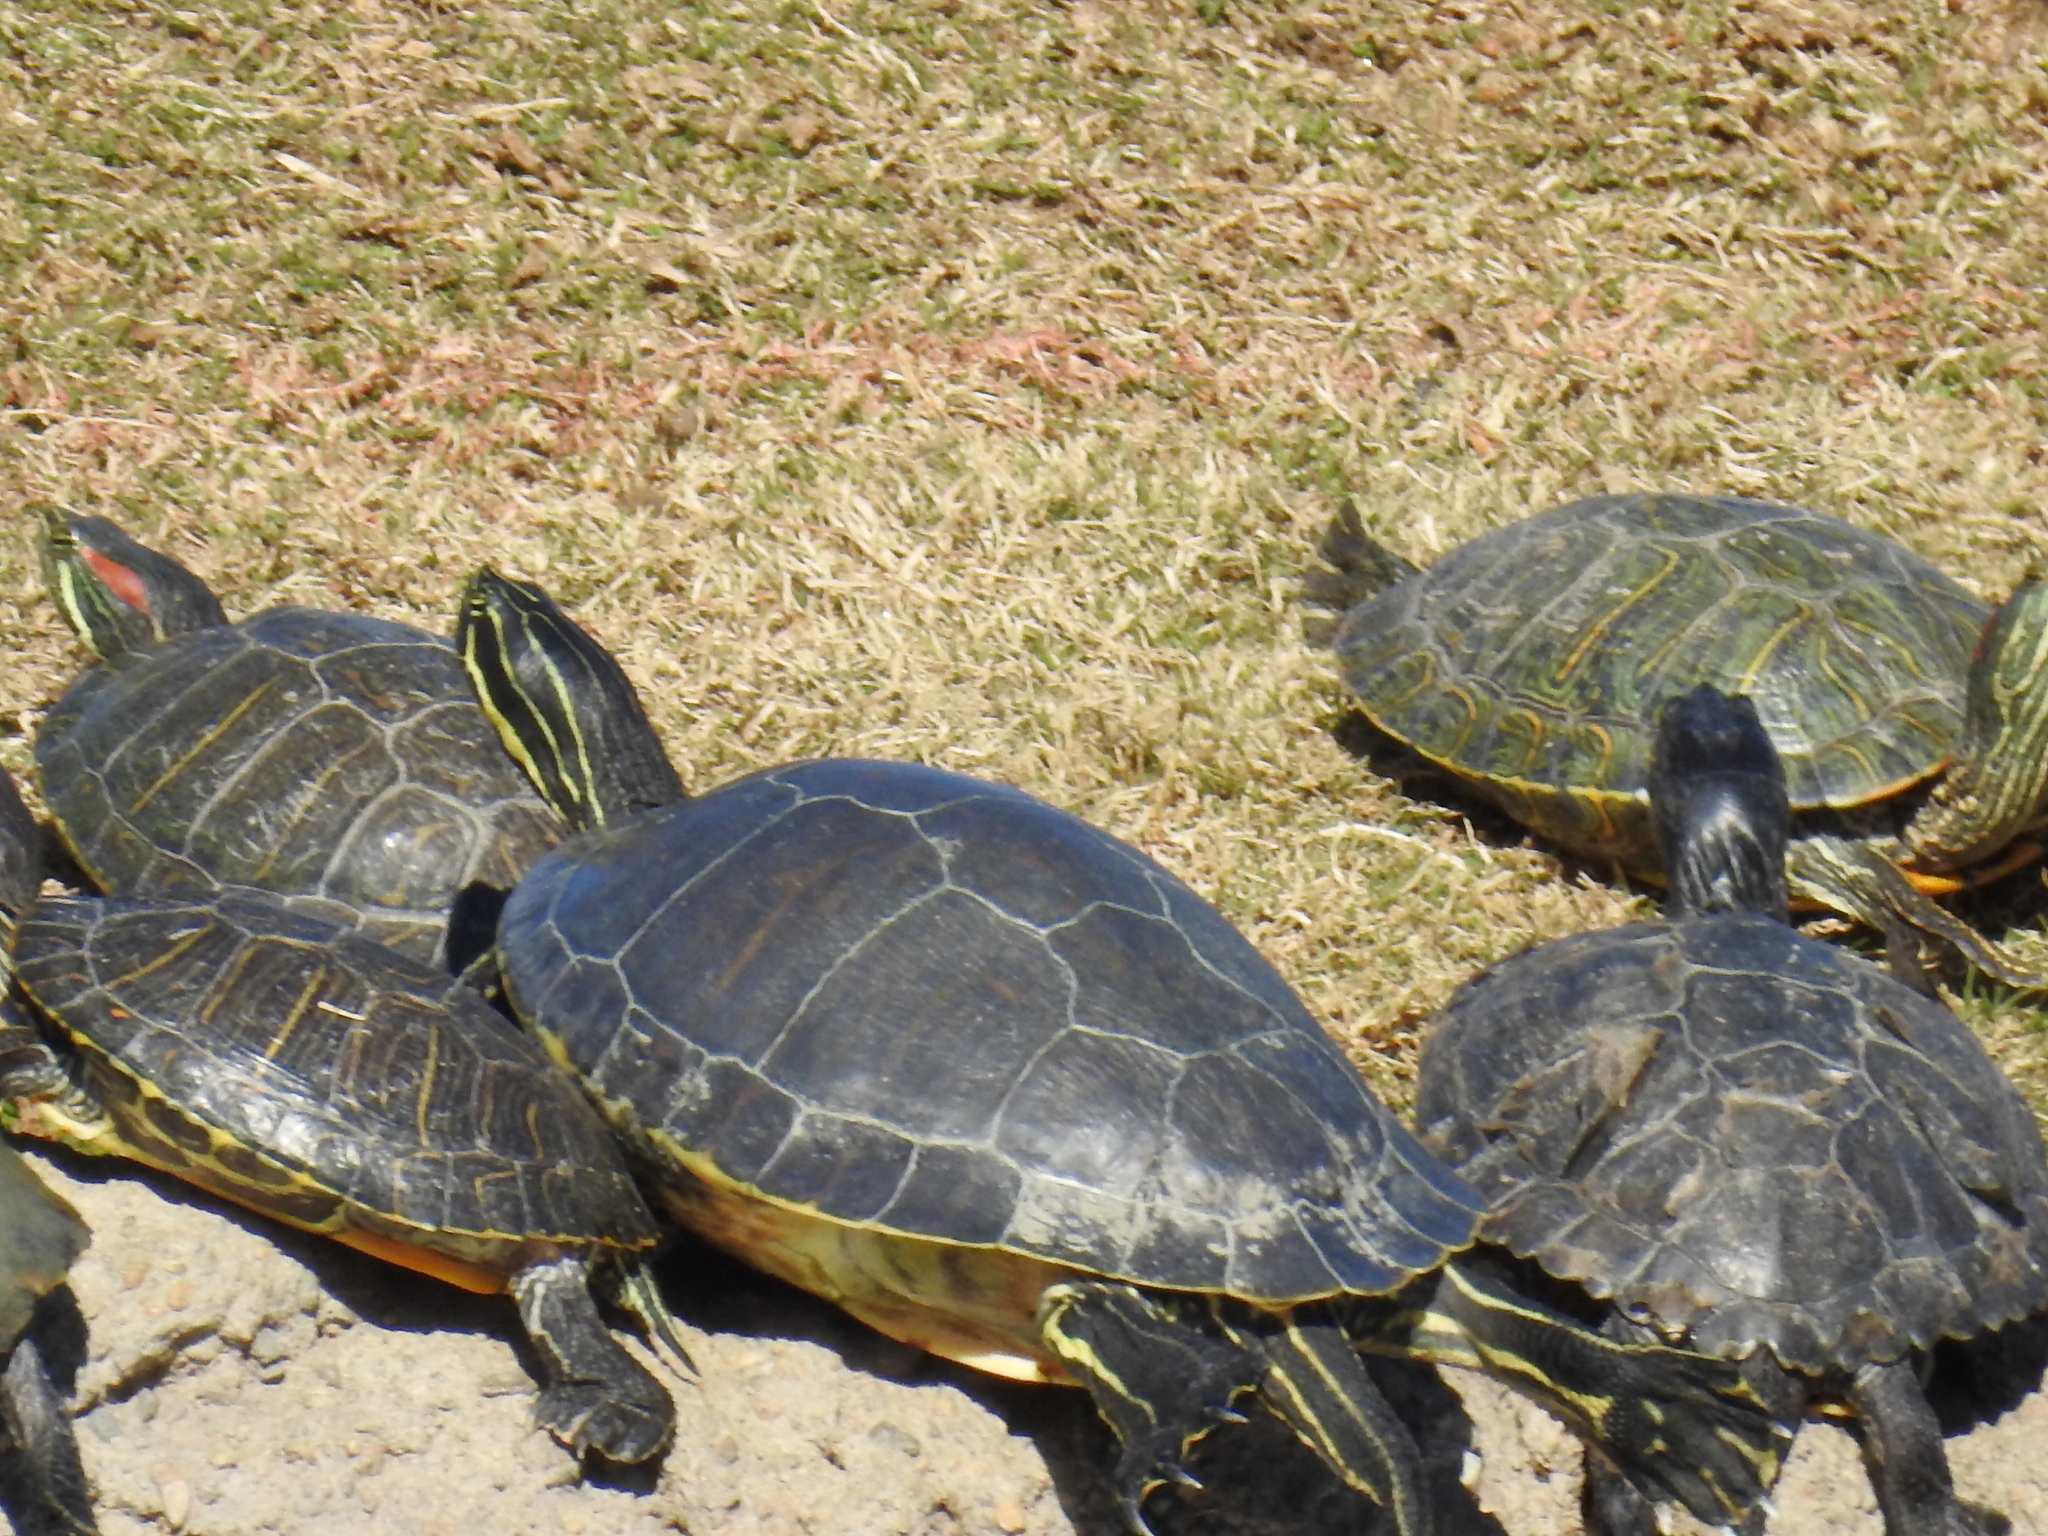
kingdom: Animalia
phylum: Chordata
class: Testudines
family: Emydidae
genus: Pseudemys
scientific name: Pseudemys peninsularis
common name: Peninsula cooter
